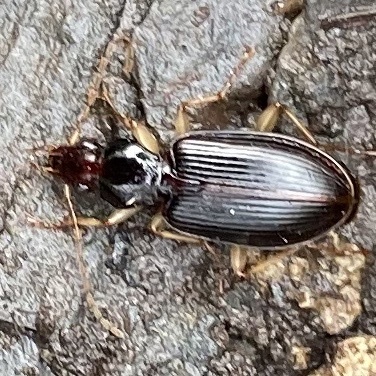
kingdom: Animalia
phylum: Arthropoda
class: Insecta
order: Coleoptera
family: Carabidae
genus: Paranchus
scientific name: Paranchus albipes
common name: White-legged harp ground beetle
